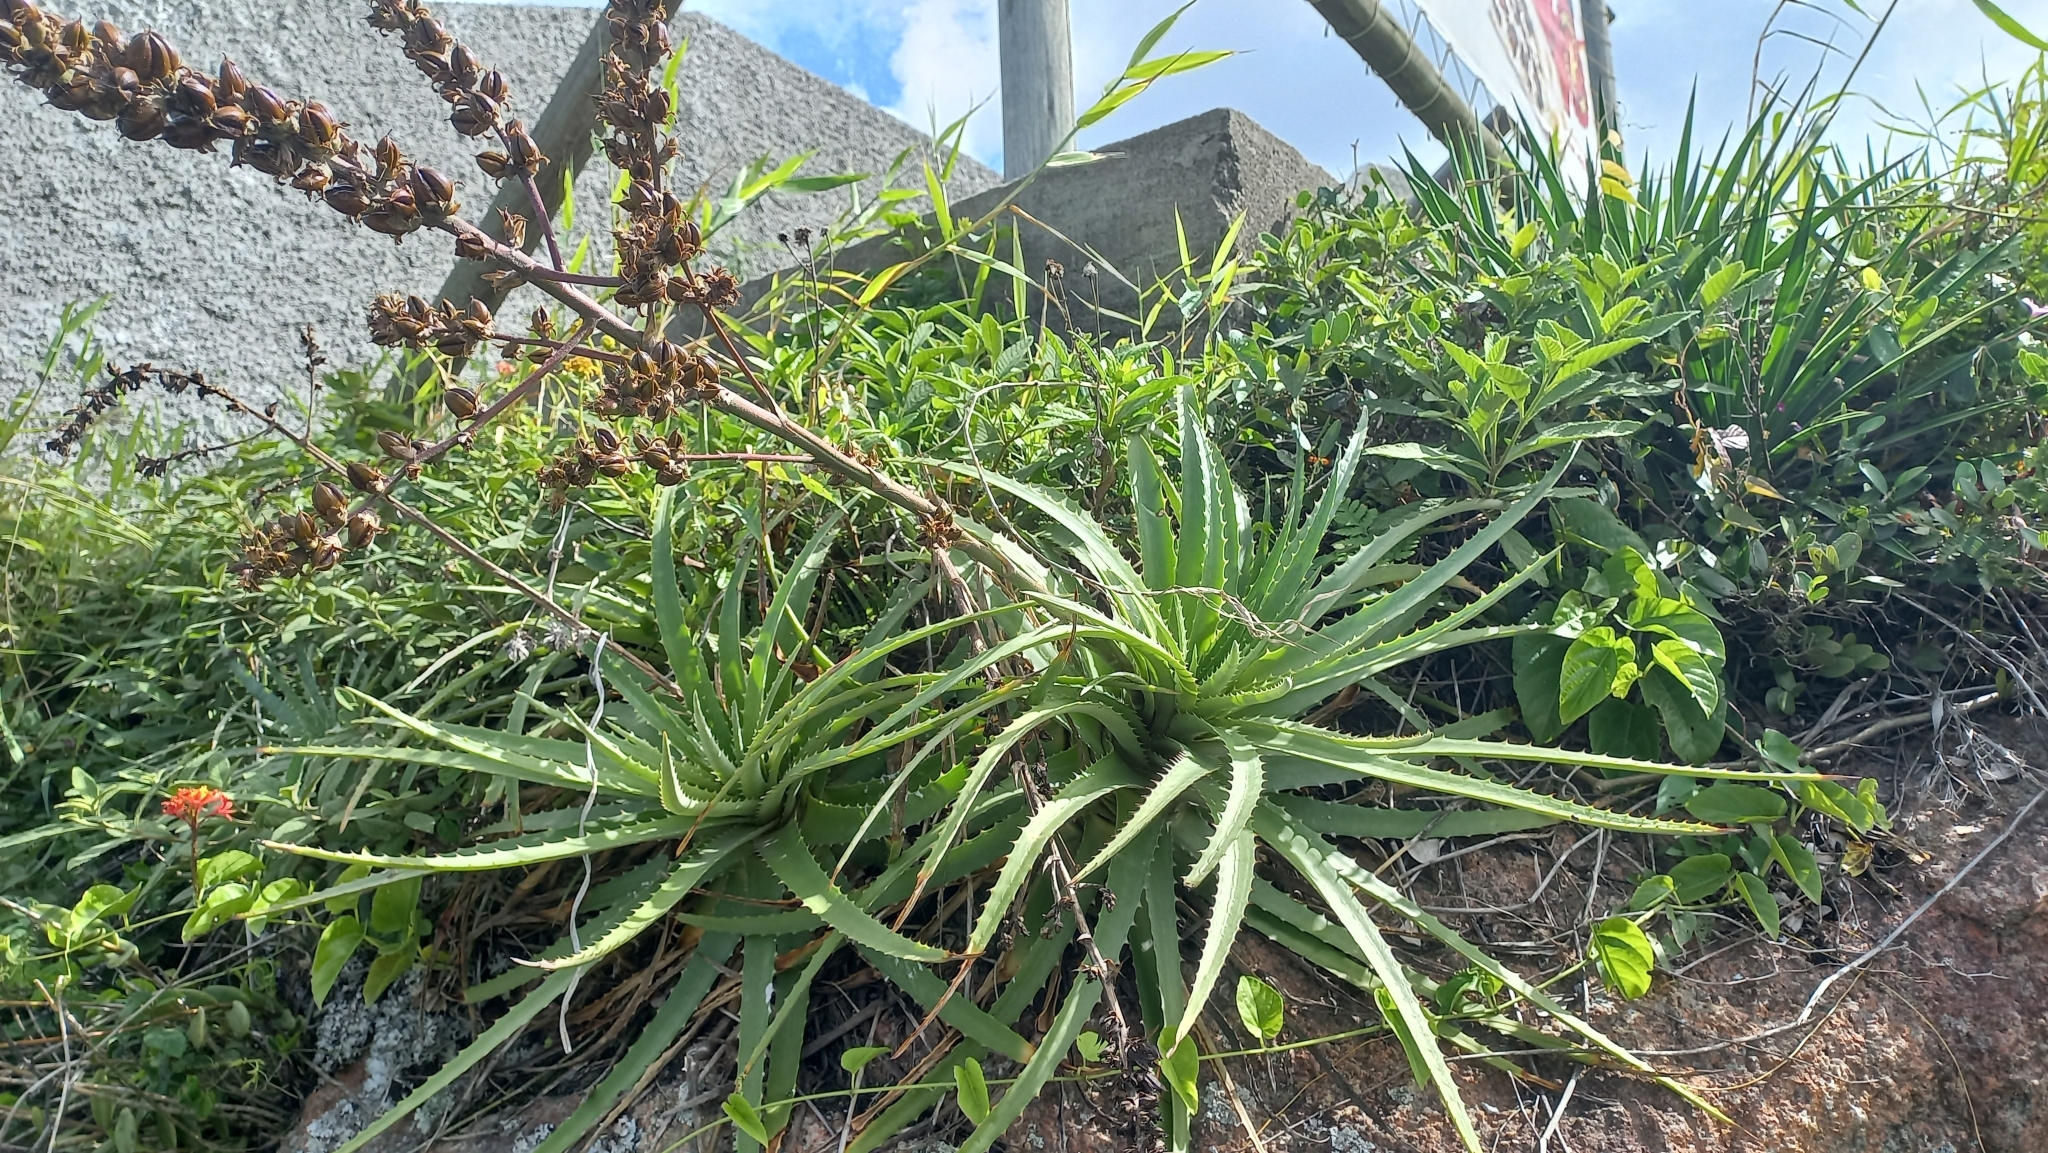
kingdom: Plantae
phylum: Tracheophyta
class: Liliopsida
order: Poales
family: Bromeliaceae
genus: Dyckia
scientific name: Dyckia encholirioides
